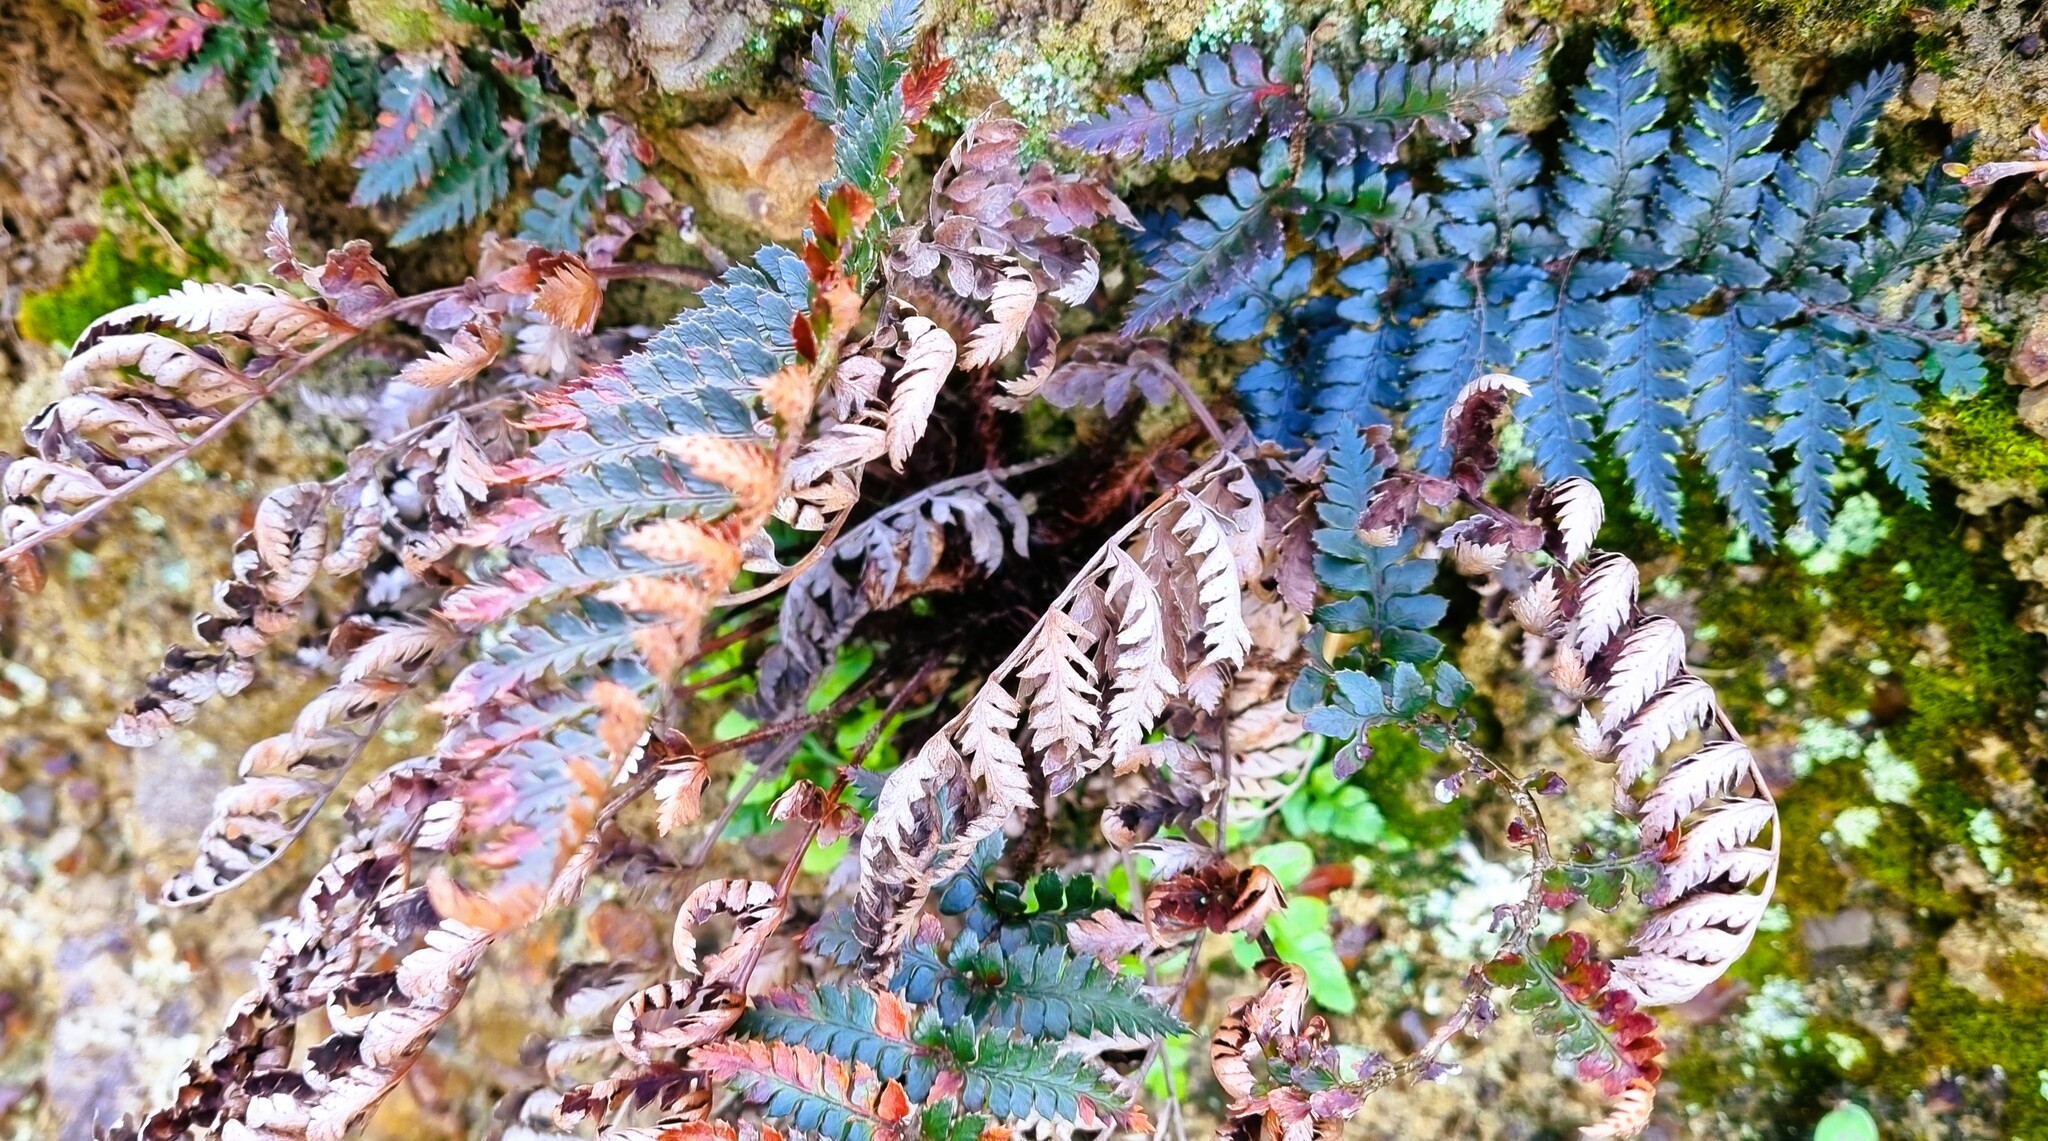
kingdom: Plantae
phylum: Tracheophyta
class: Polypodiopsida
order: Polypodiales
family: Dryopteridaceae
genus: Polystichum
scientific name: Polystichum neozelandicum
